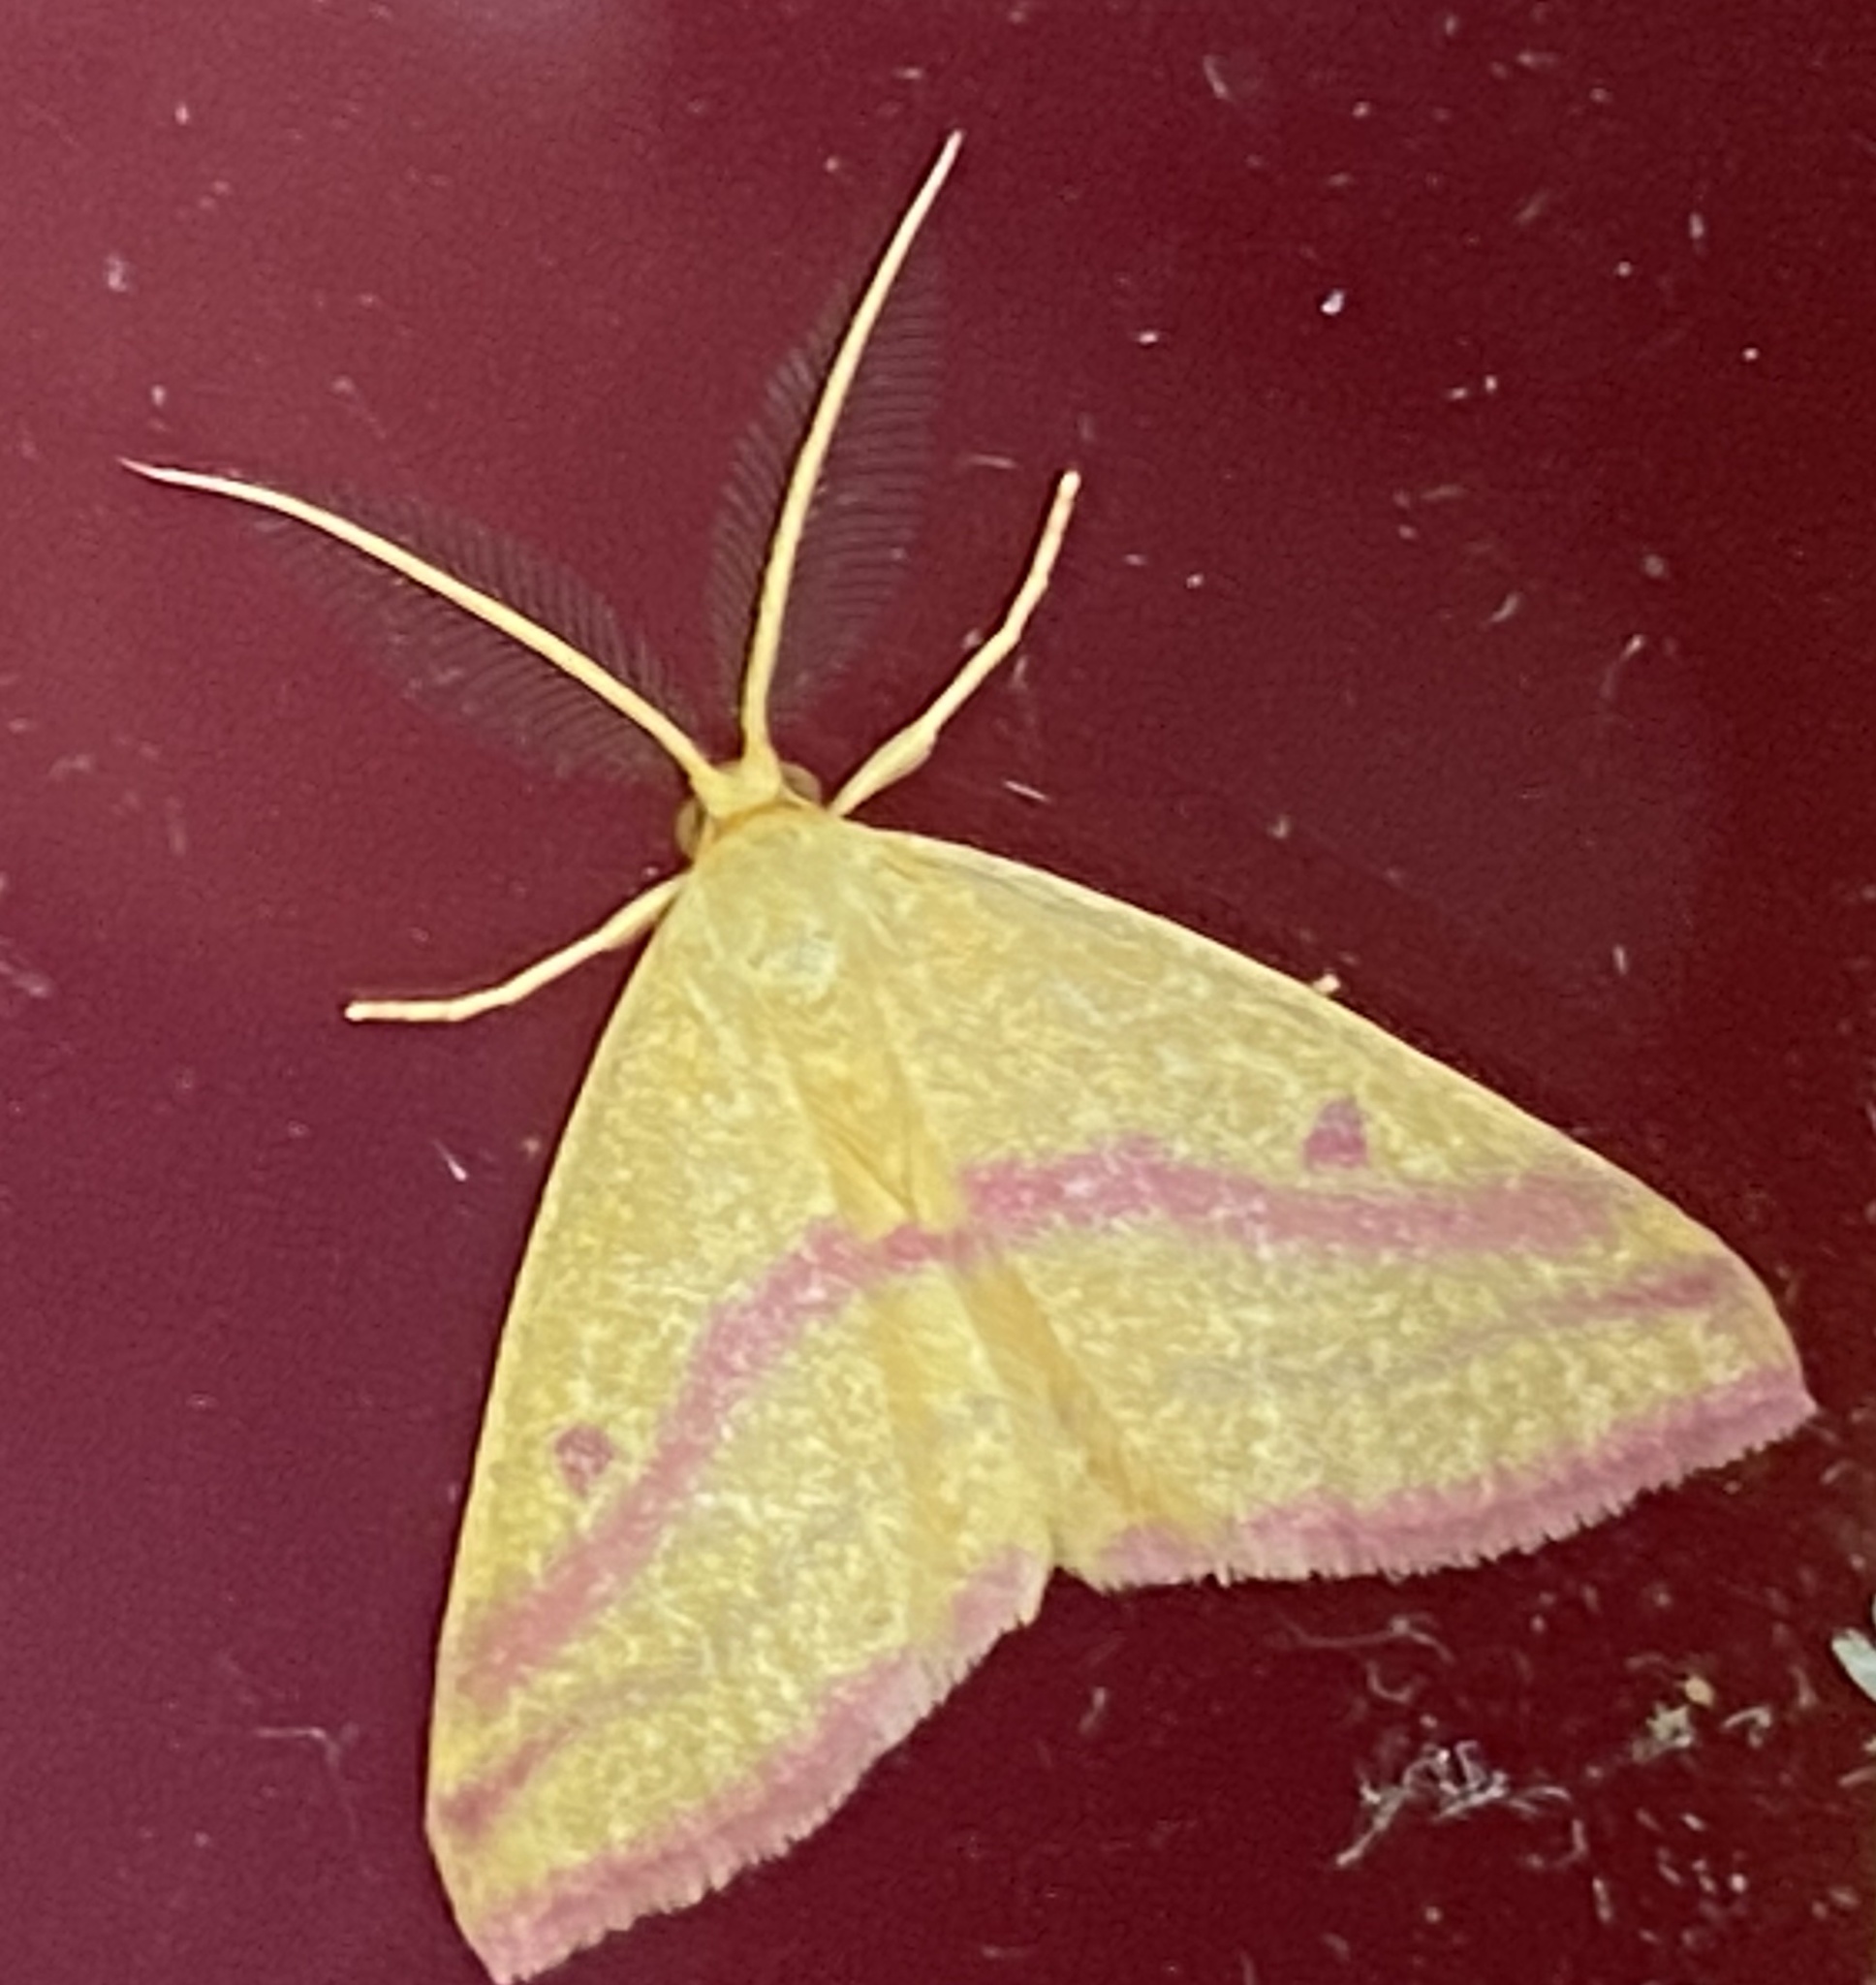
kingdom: Animalia
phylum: Arthropoda
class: Insecta
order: Lepidoptera
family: Geometridae
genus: Haematopis
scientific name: Haematopis grataria
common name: Chickweed geometer
